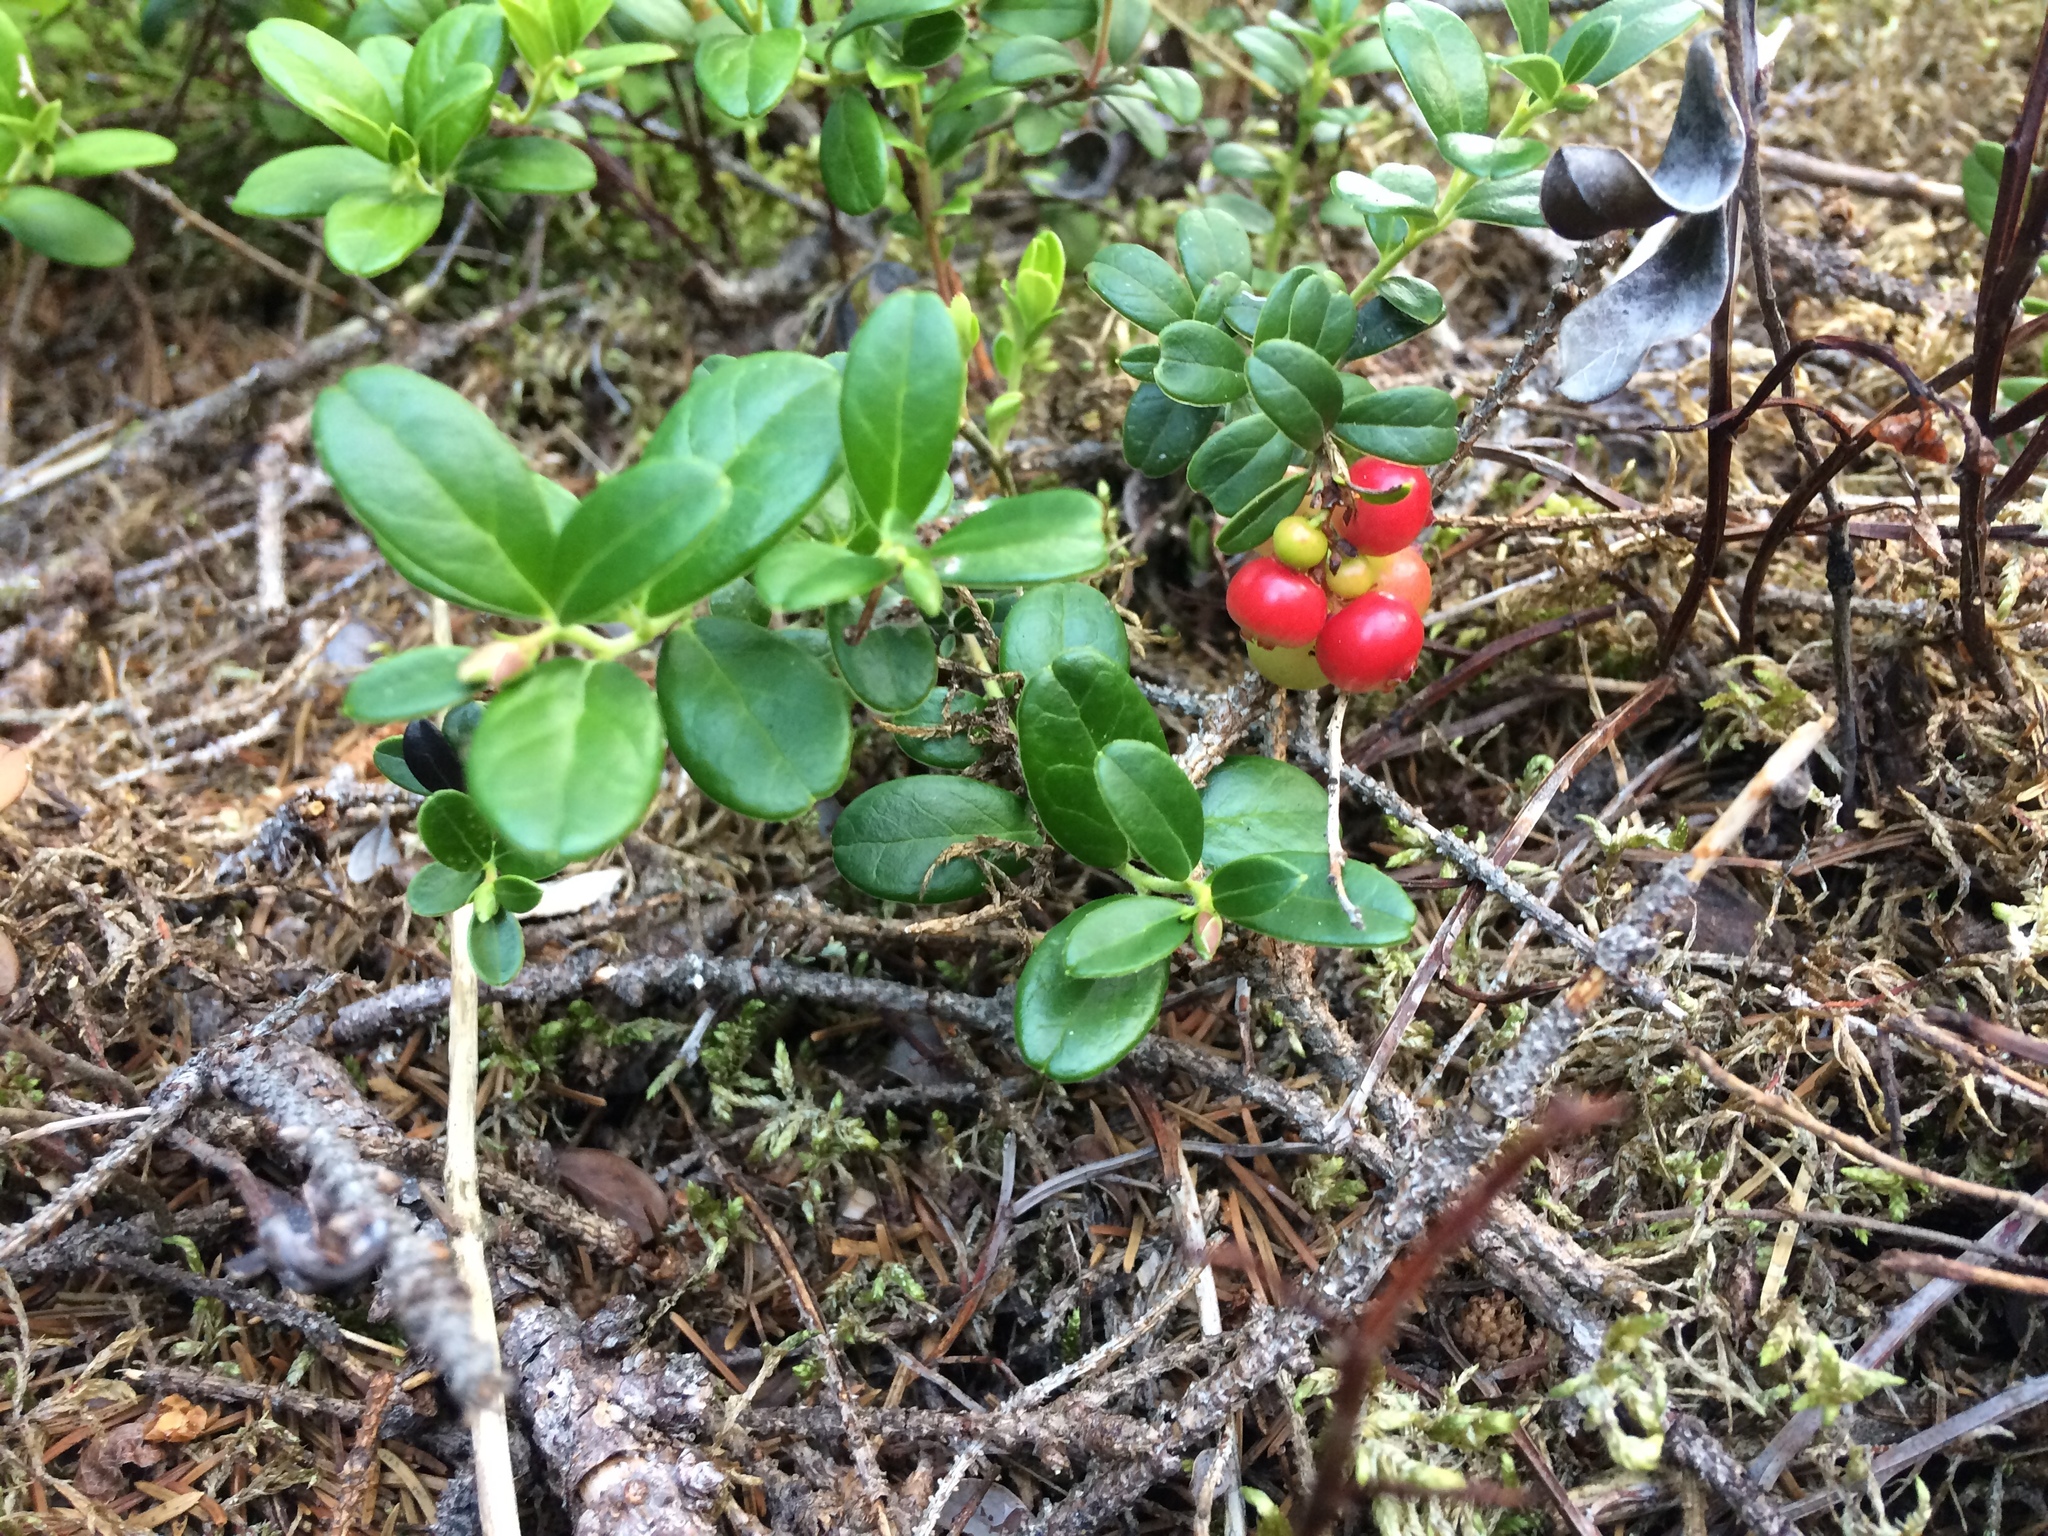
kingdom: Plantae
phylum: Tracheophyta
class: Magnoliopsida
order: Ericales
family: Ericaceae
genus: Vaccinium
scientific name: Vaccinium vitis-idaea
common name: Cowberry
